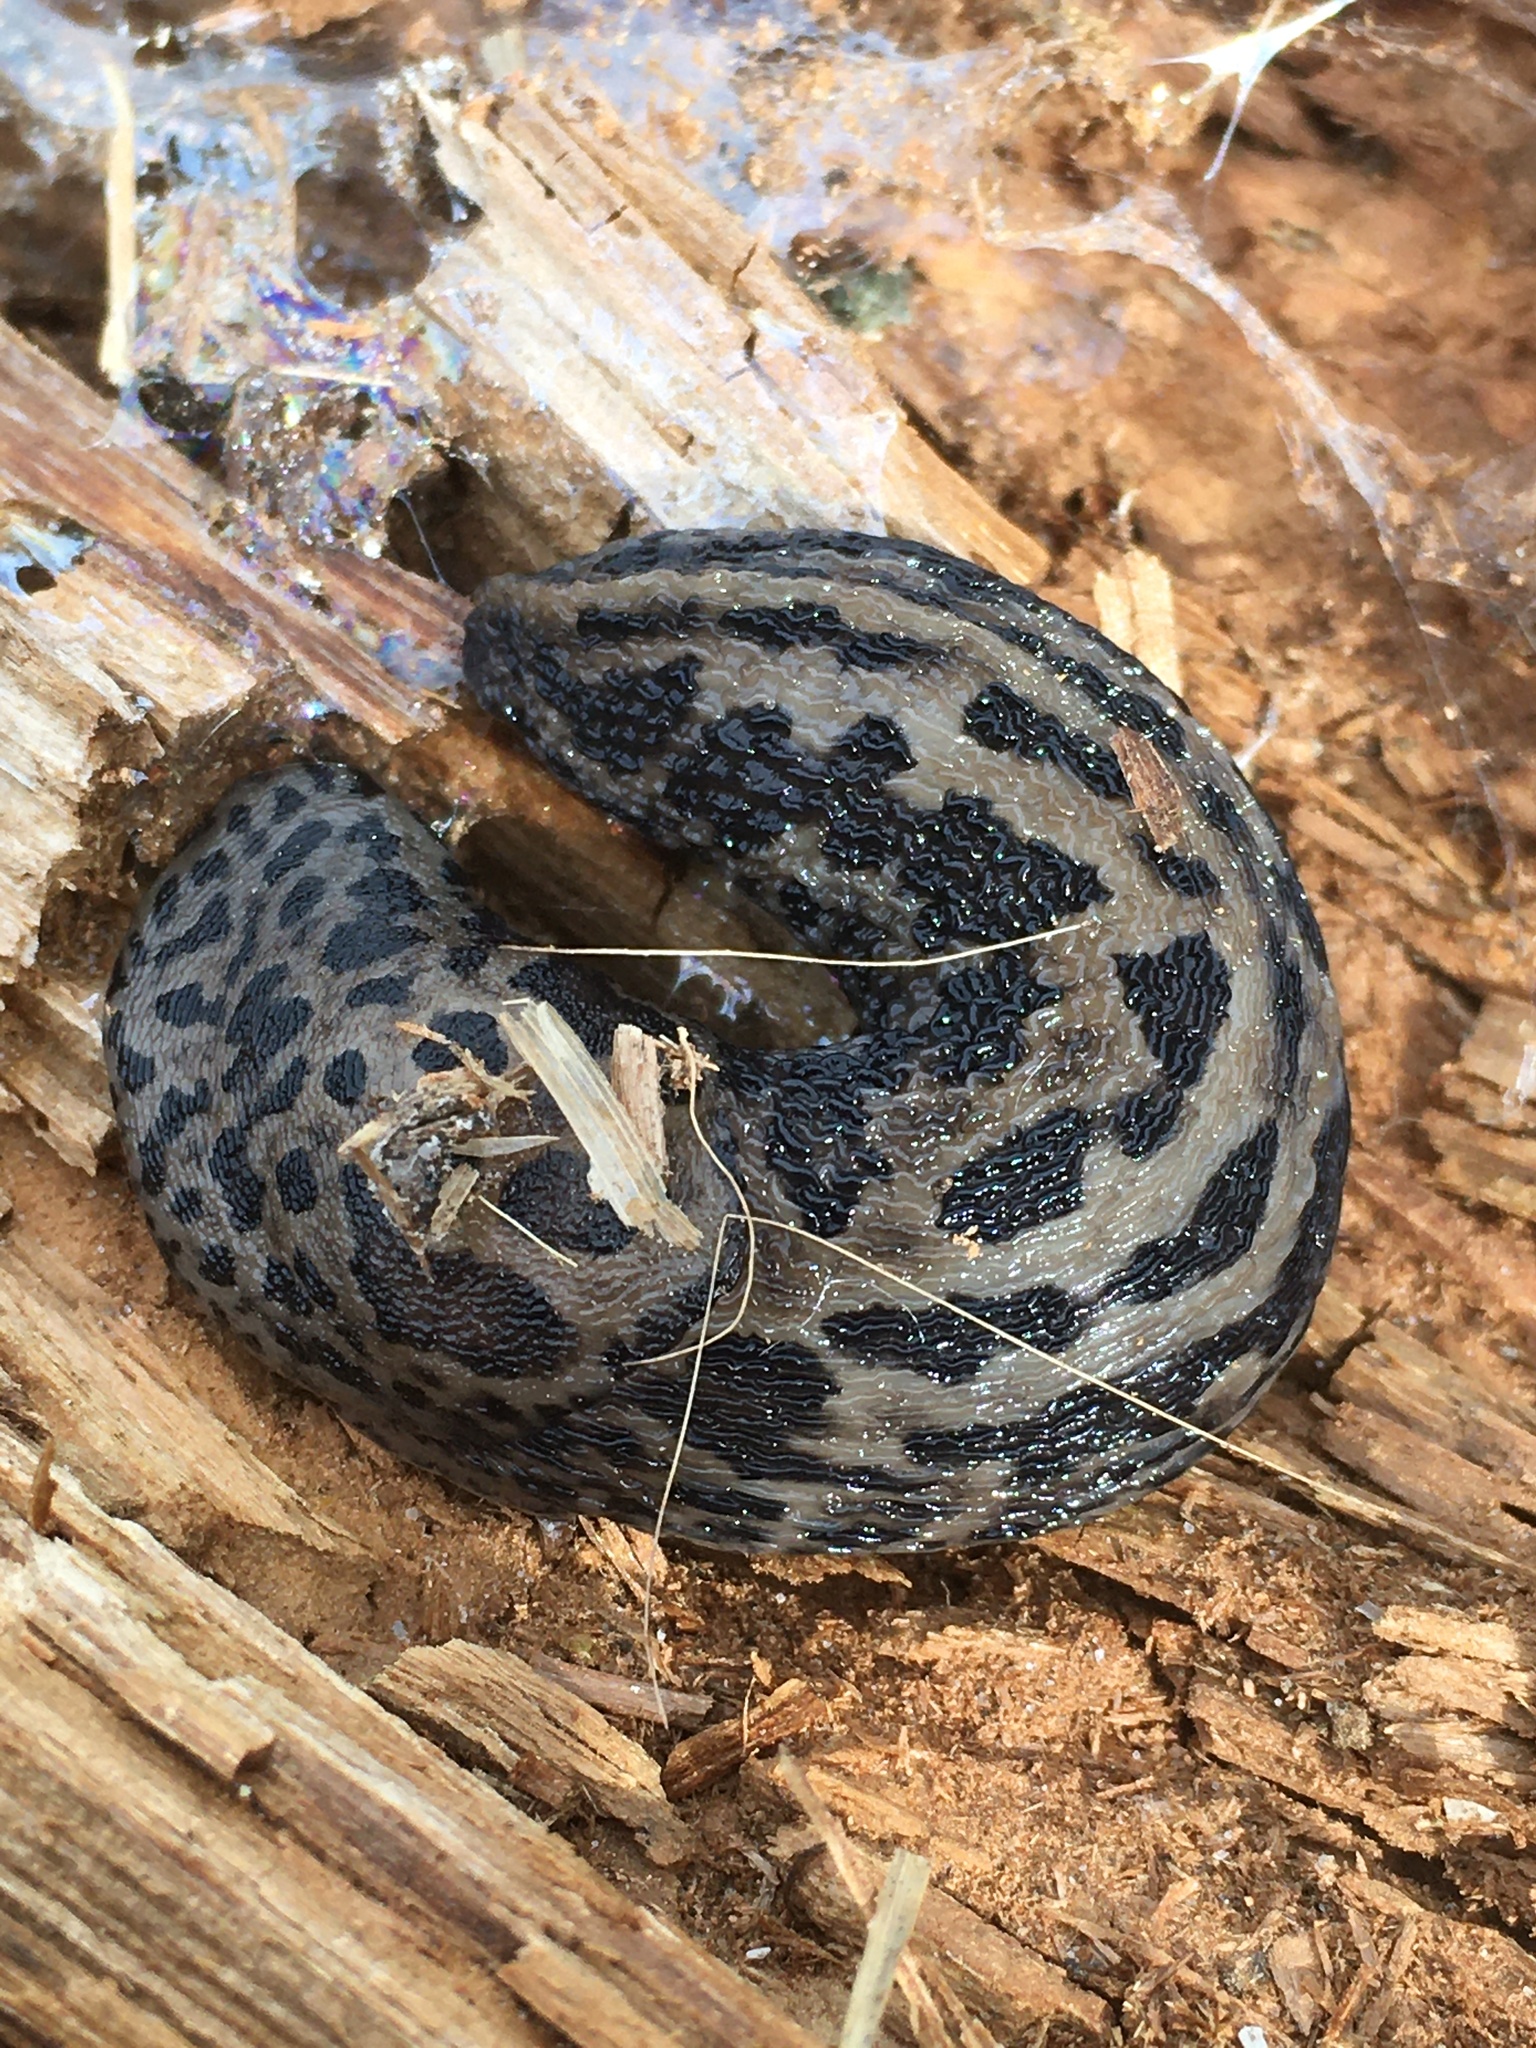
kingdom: Animalia
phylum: Mollusca
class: Gastropoda
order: Stylommatophora
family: Limacidae
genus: Limax
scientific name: Limax maximus
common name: Great grey slug
